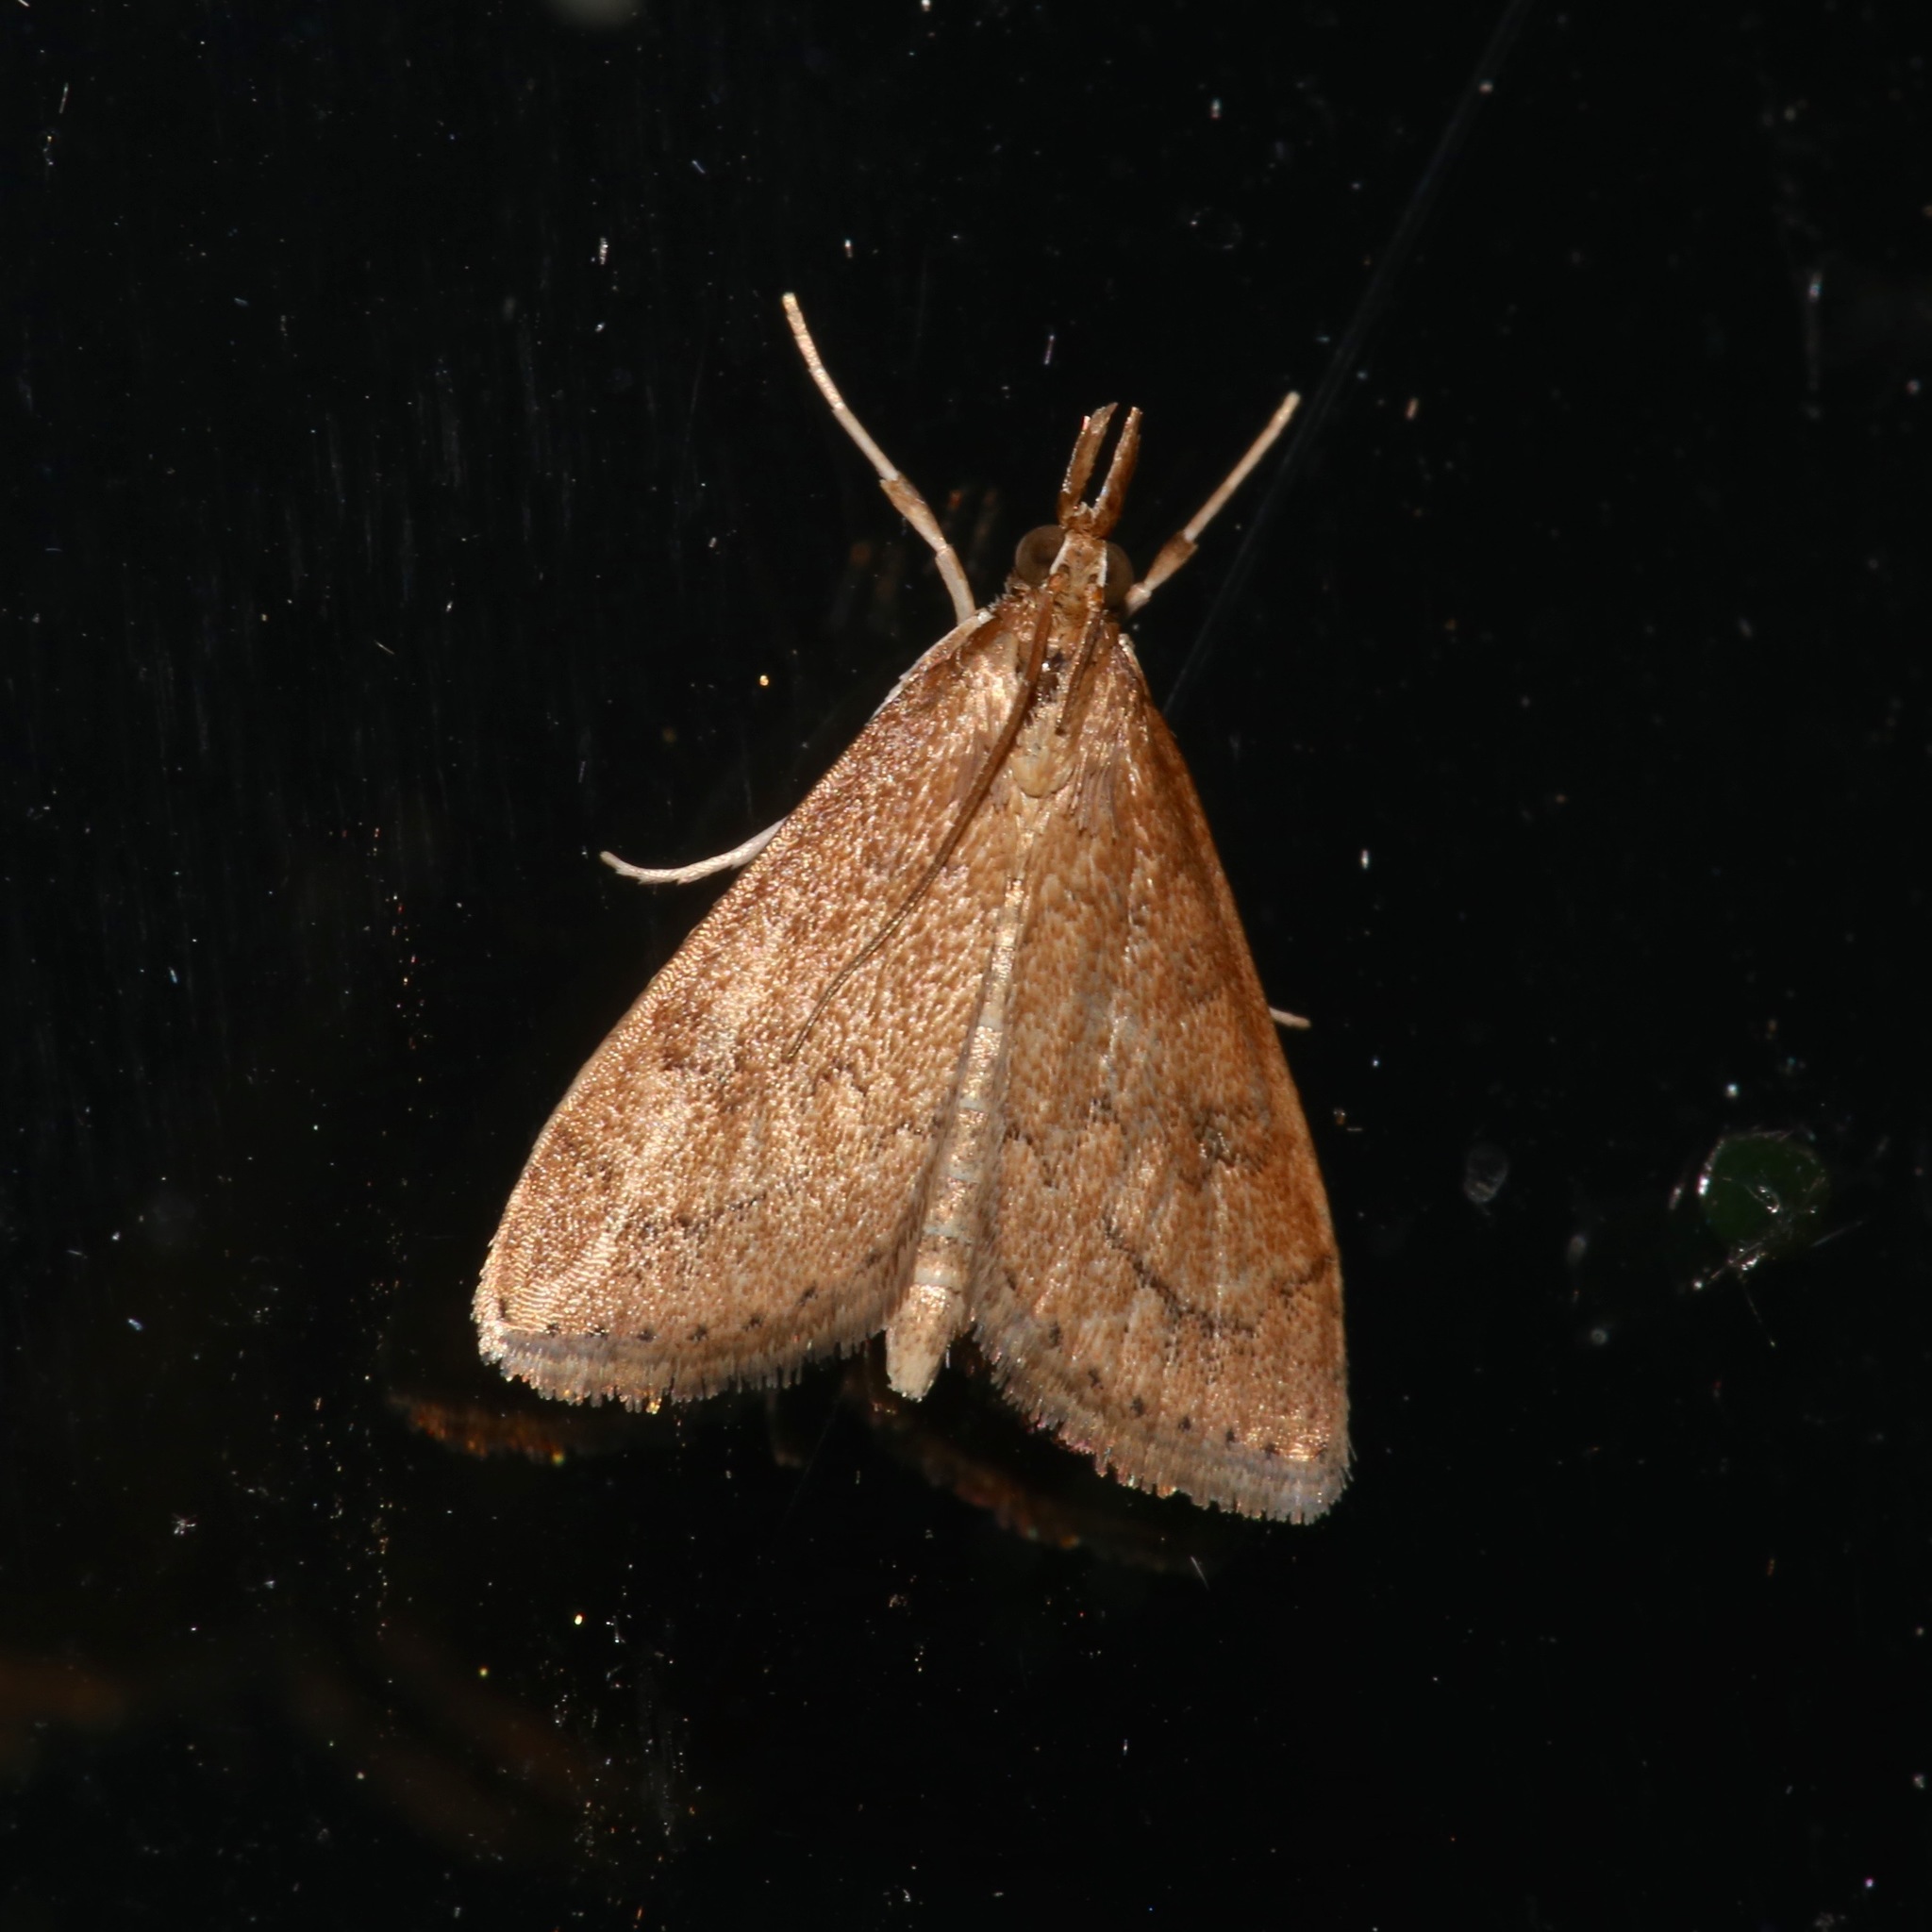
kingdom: Animalia
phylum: Arthropoda
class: Insecta
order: Lepidoptera
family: Crambidae
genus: Udea
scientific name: Udea rubigalis
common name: Celery leaftier moth
